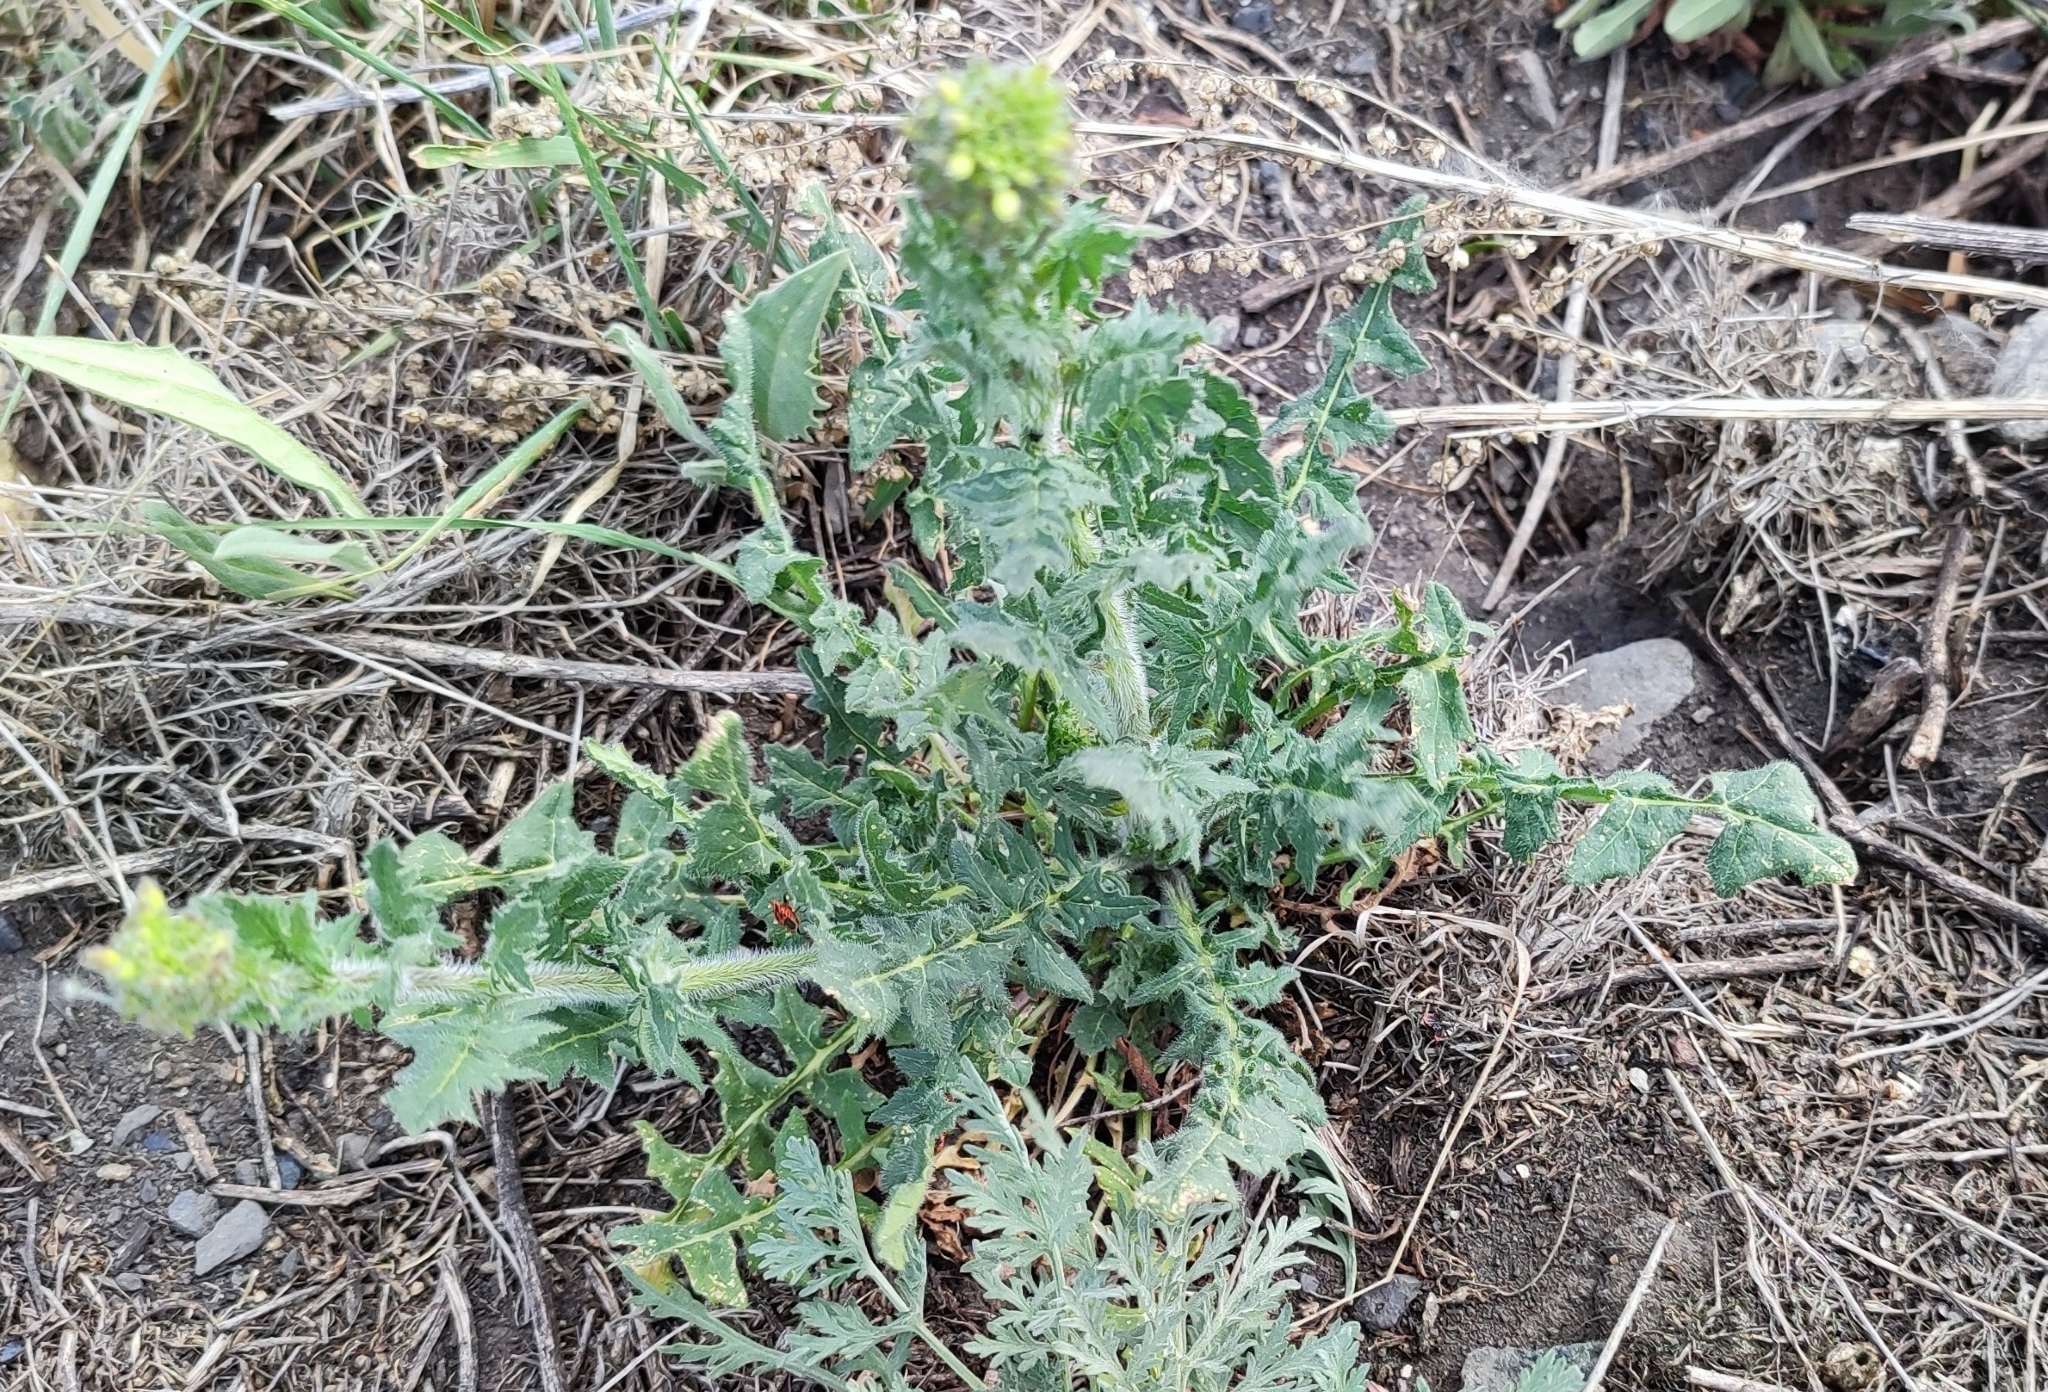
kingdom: Plantae
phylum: Tracheophyta
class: Magnoliopsida
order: Brassicales
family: Brassicaceae
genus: Sisymbrium
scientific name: Sisymbrium loeselii
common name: False london-rocket
